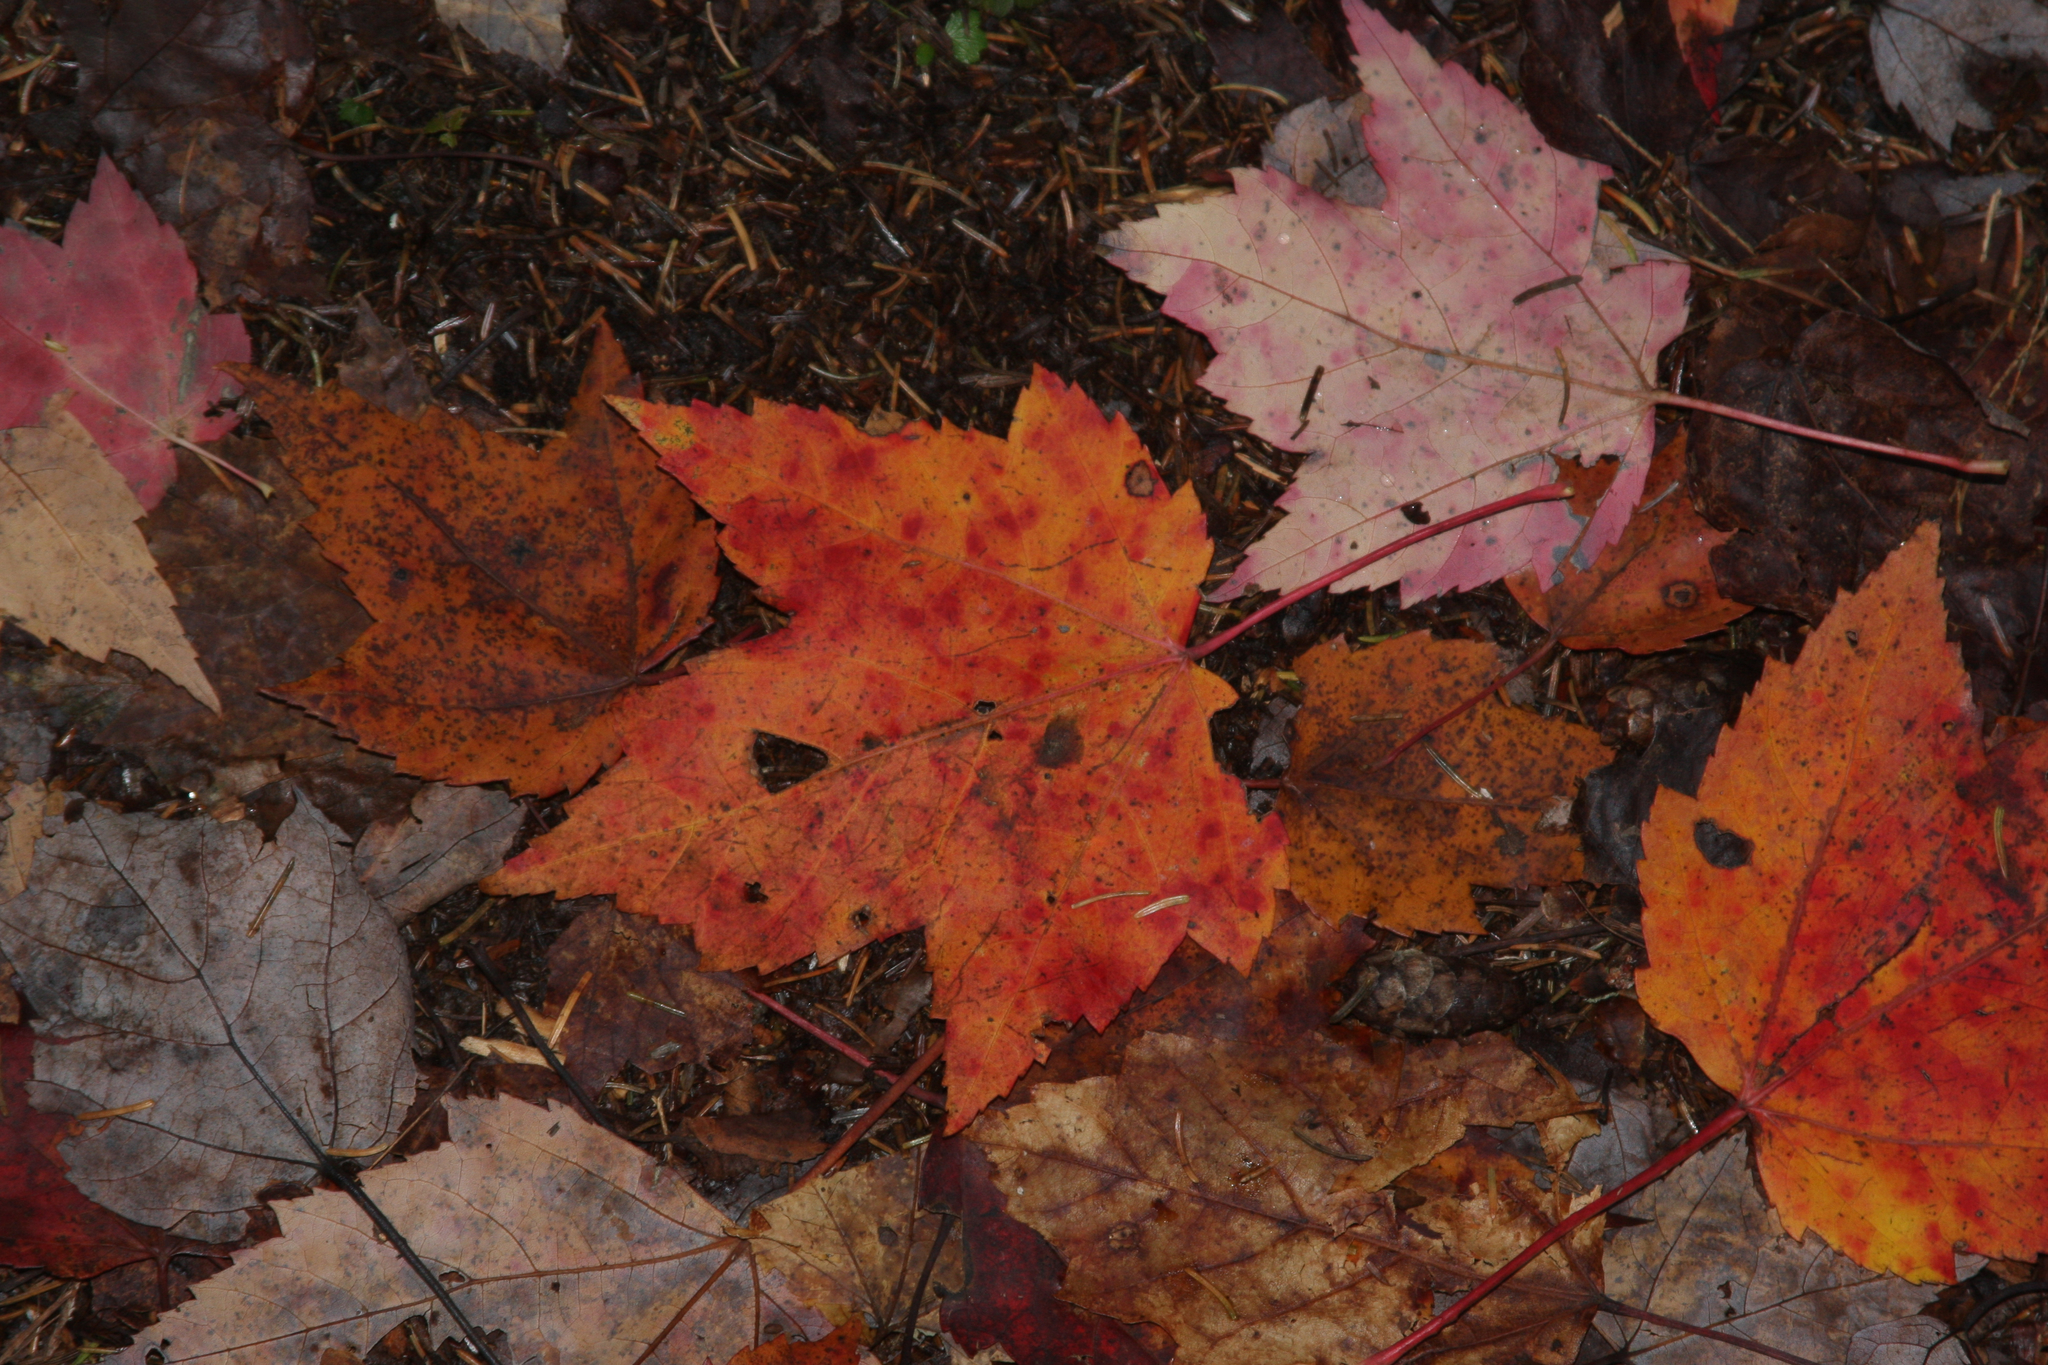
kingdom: Plantae
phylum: Tracheophyta
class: Magnoliopsida
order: Sapindales
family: Sapindaceae
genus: Acer
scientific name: Acer rubrum
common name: Red maple
